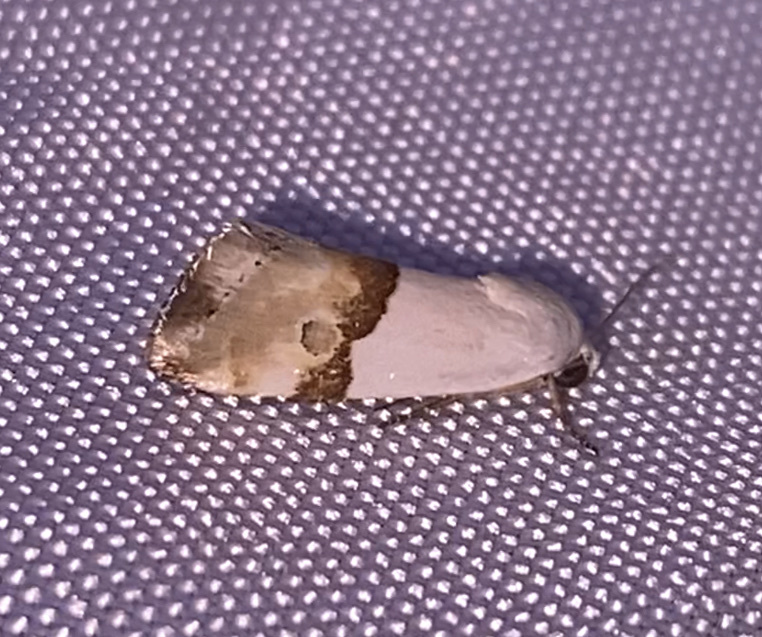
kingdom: Animalia
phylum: Arthropoda
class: Insecta
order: Lepidoptera
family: Noctuidae
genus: Ponometia
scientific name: Ponometia elegantula
